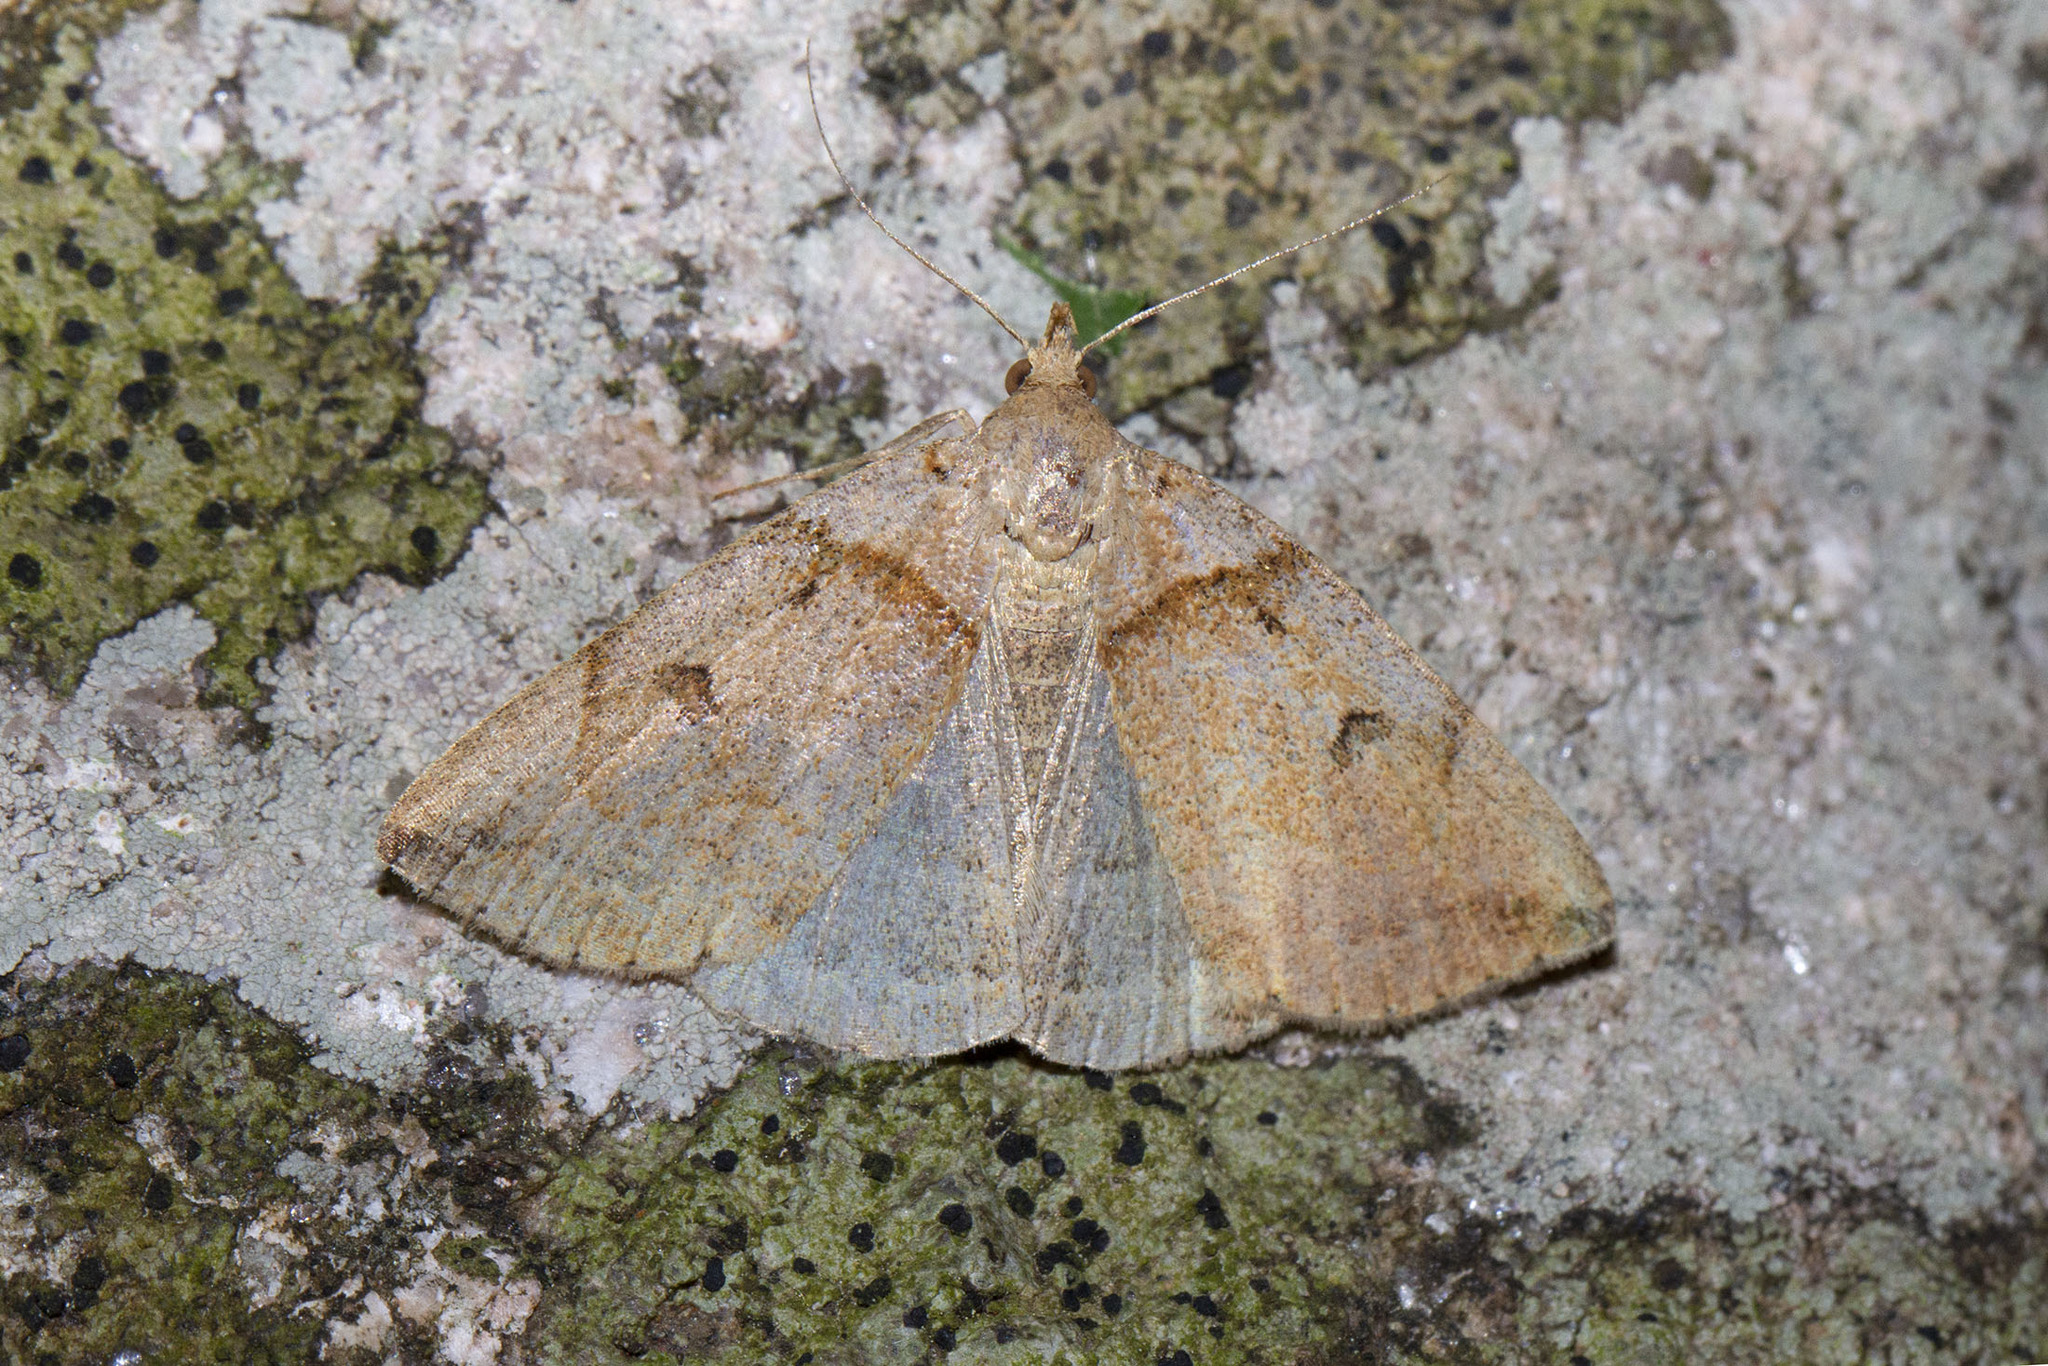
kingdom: Animalia
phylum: Arthropoda
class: Insecta
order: Lepidoptera
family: Erebidae
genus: Zanclognatha
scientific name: Zanclognatha laevigata
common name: Variable fan-foot
